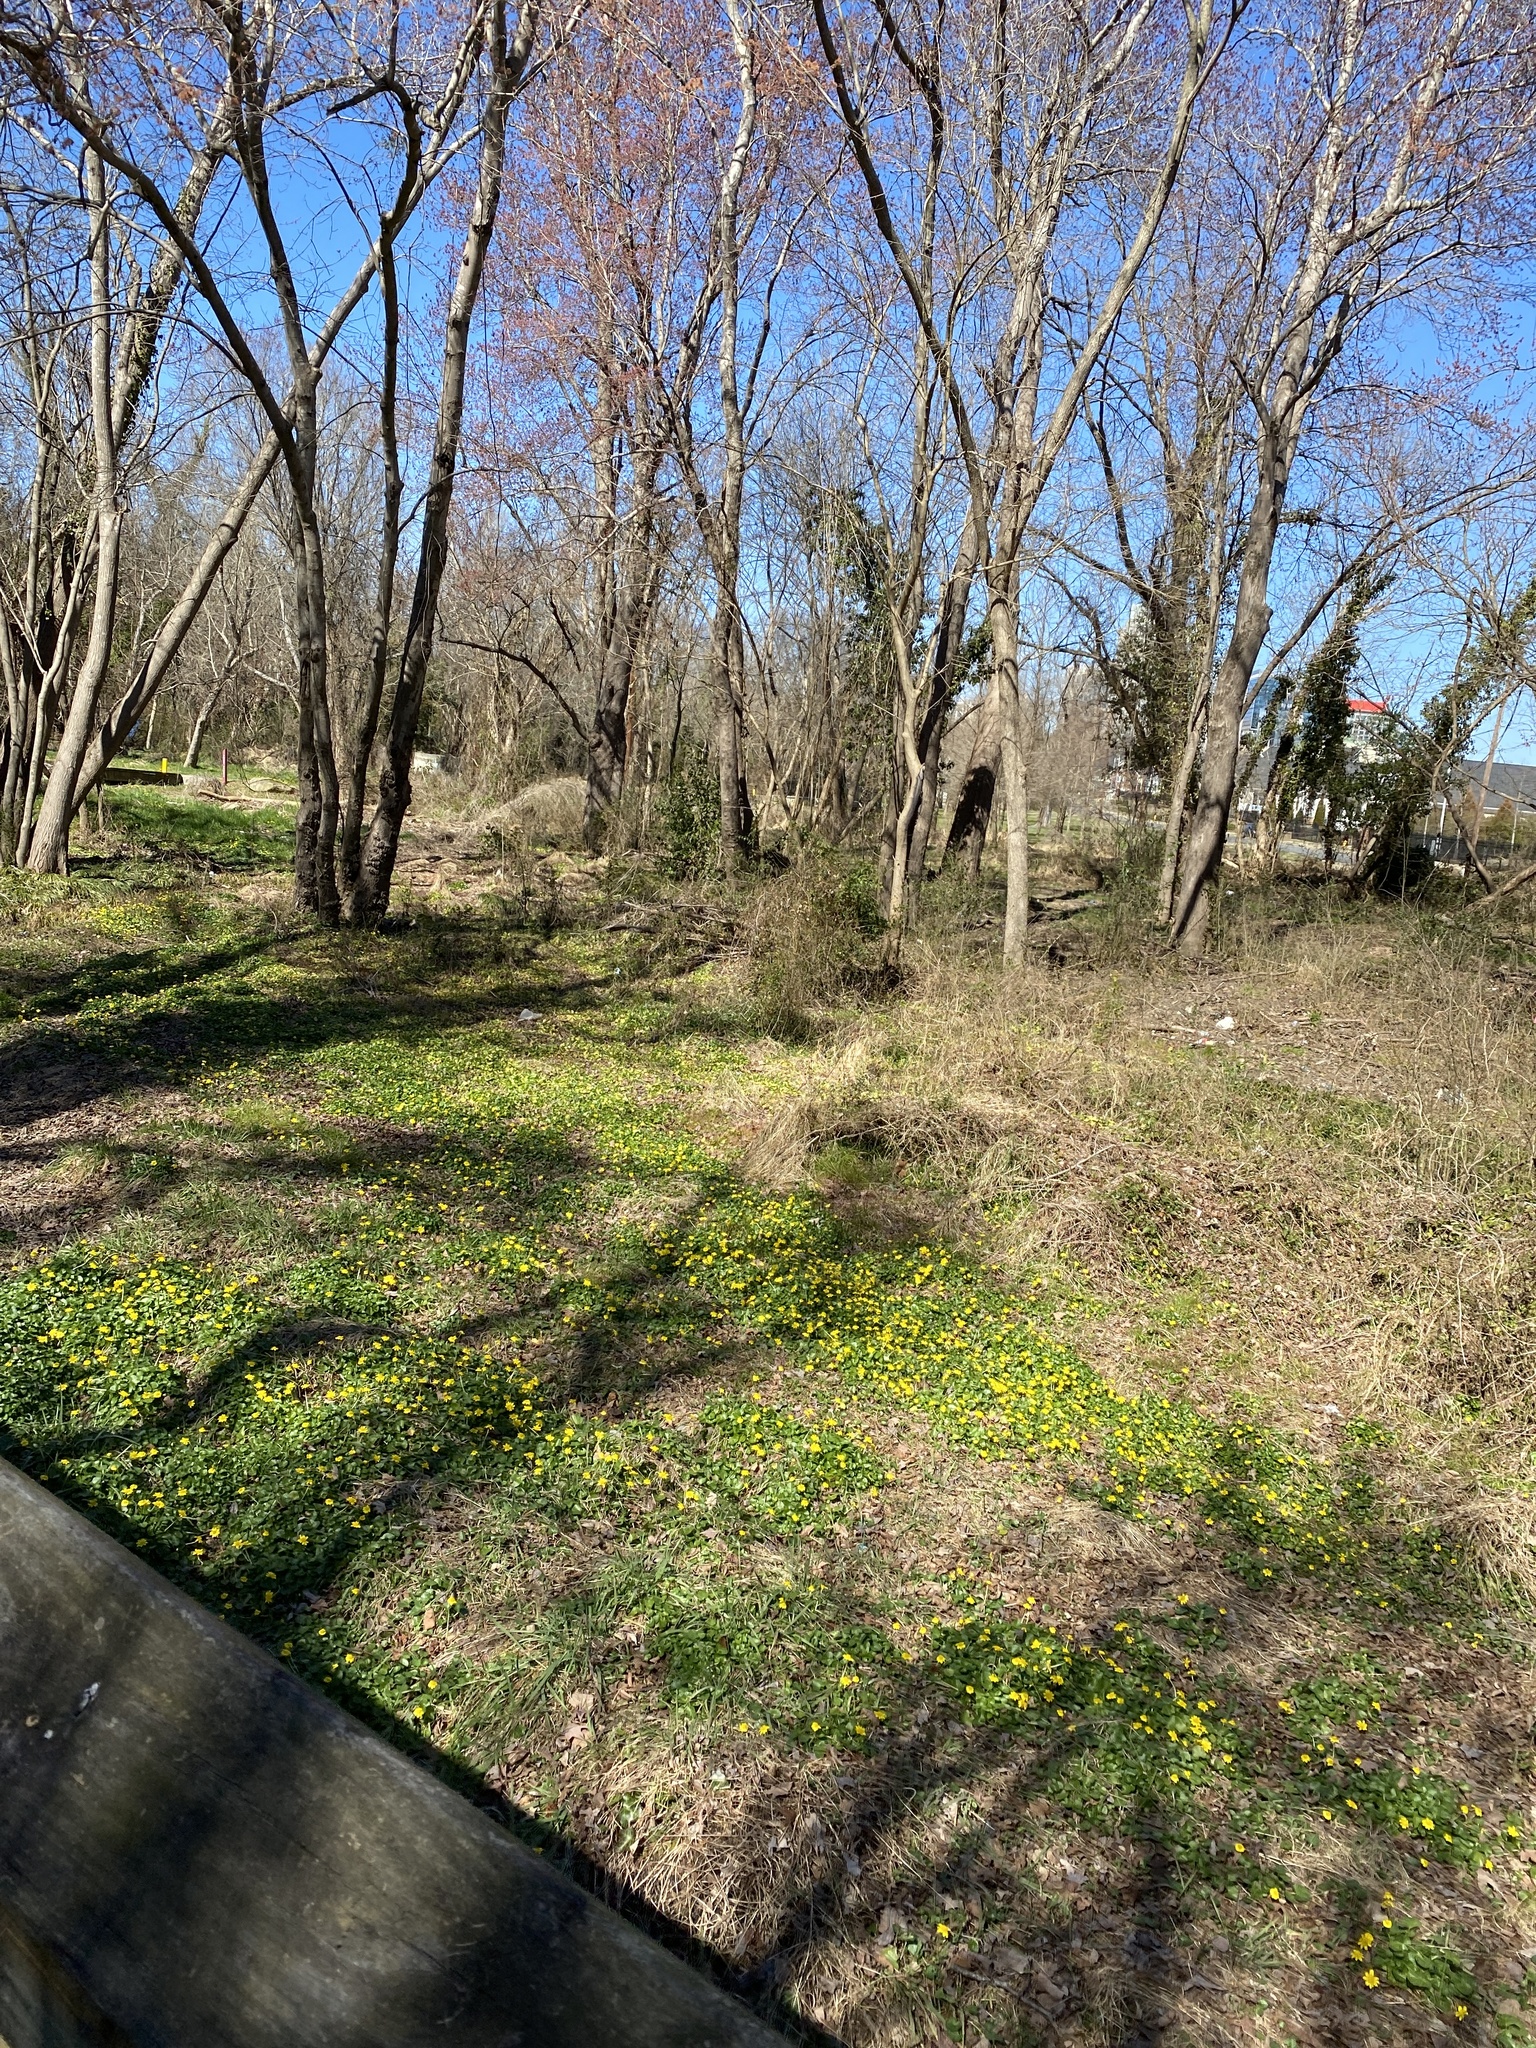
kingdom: Plantae
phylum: Tracheophyta
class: Magnoliopsida
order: Ranunculales
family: Ranunculaceae
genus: Ficaria
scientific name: Ficaria verna
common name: Lesser celandine
